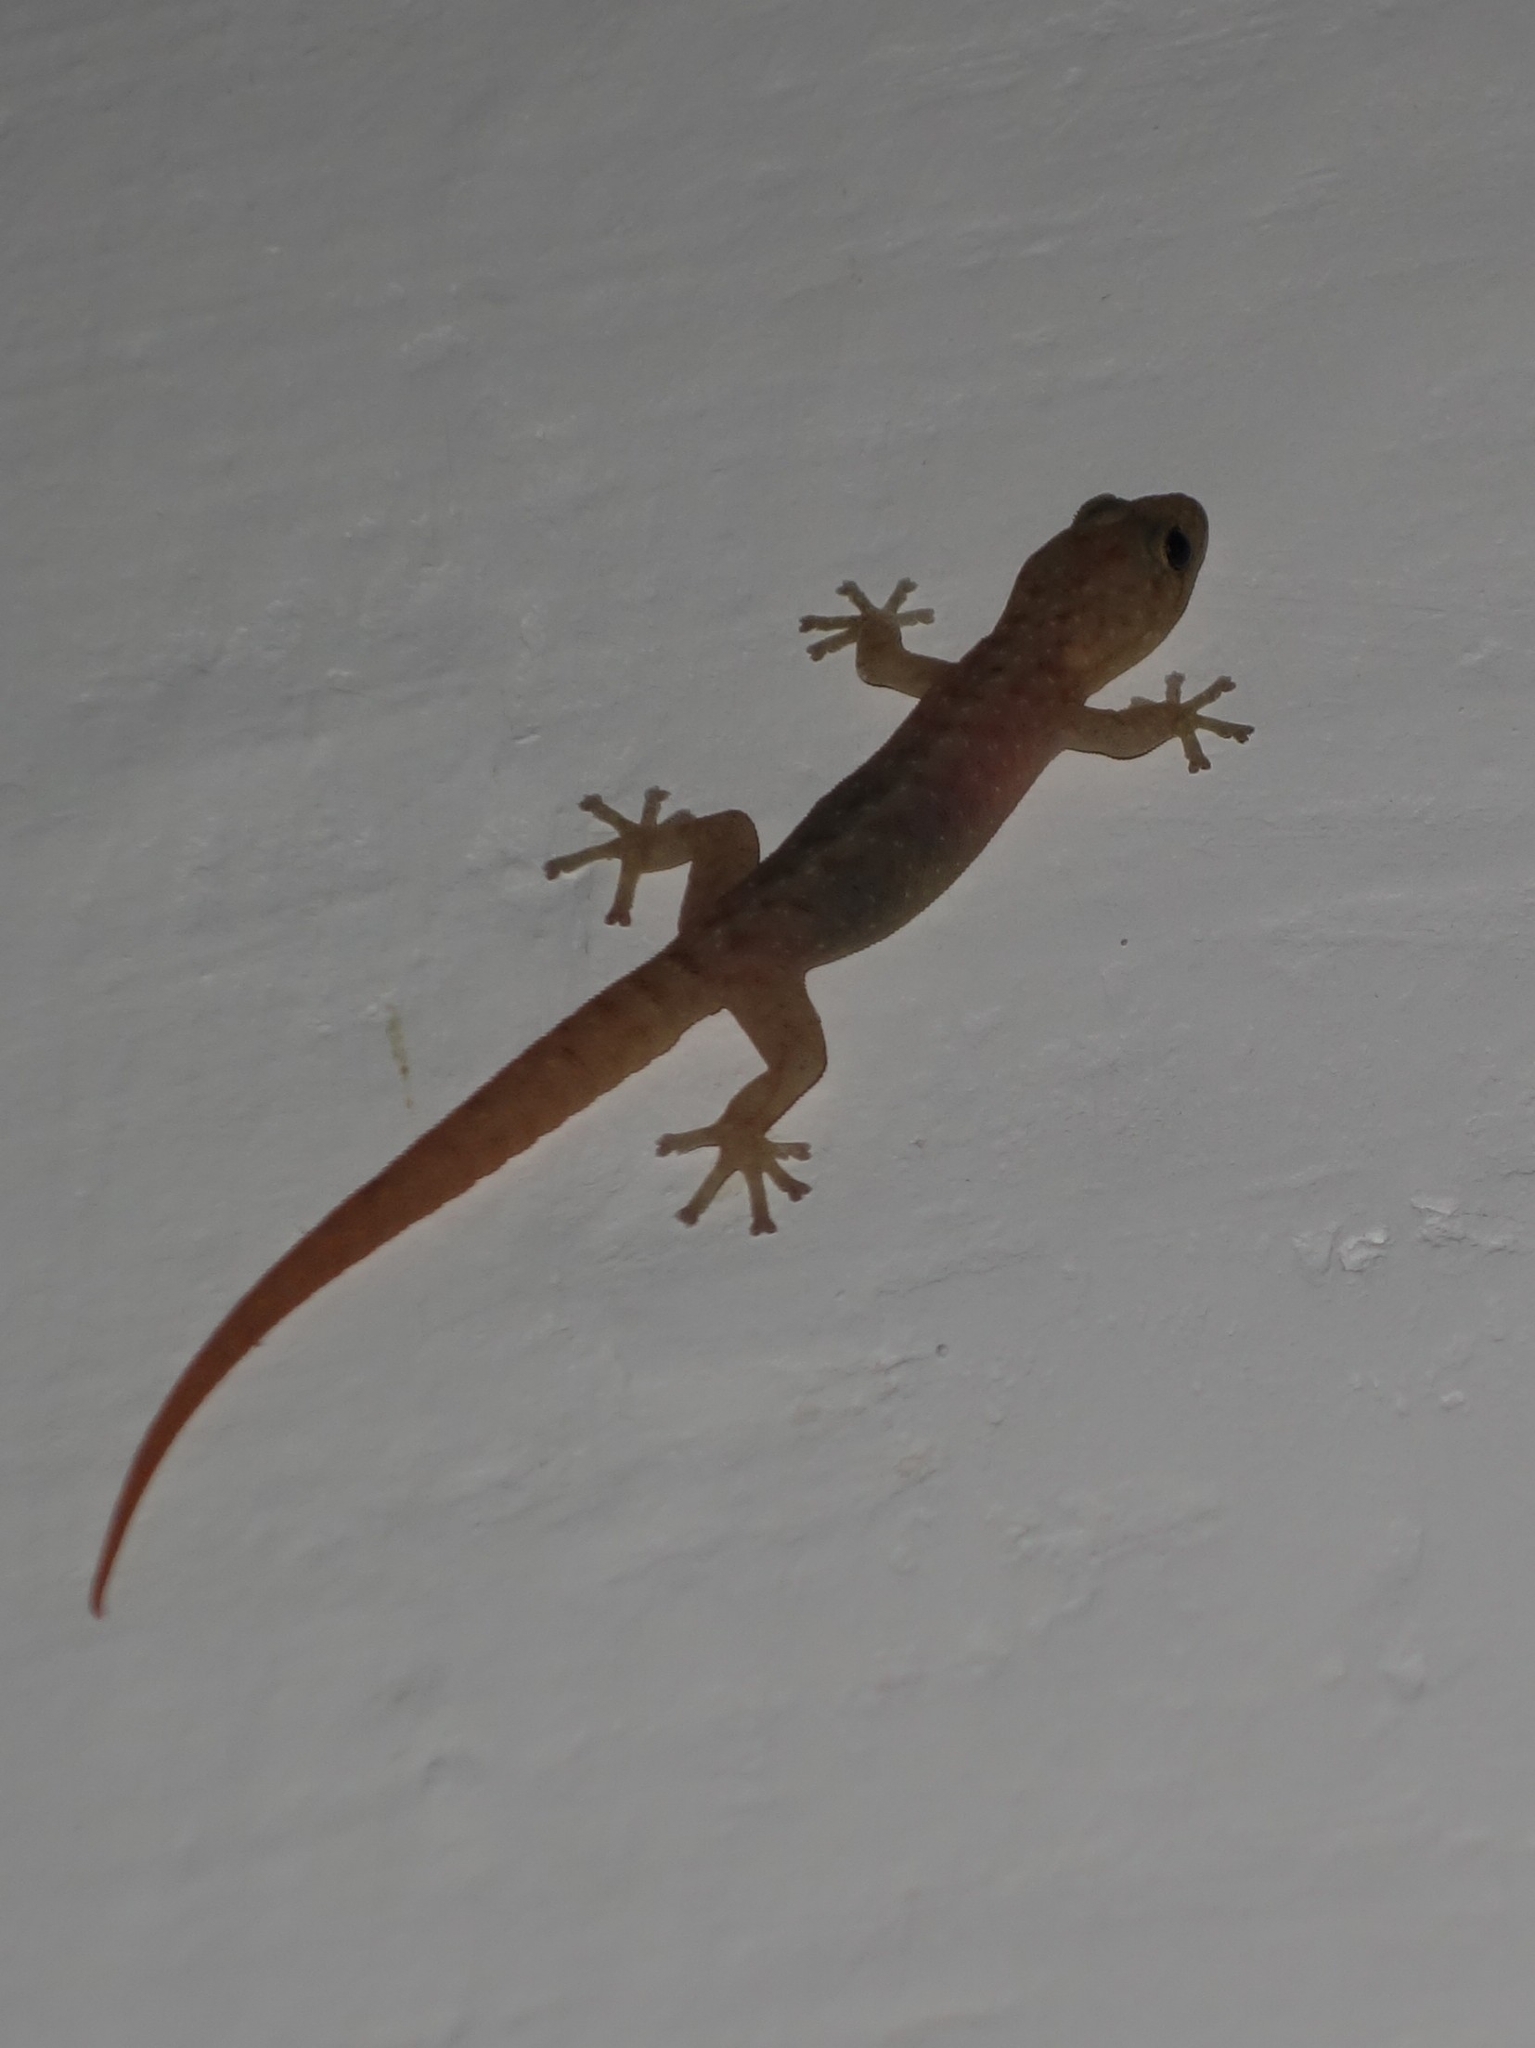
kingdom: Animalia
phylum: Chordata
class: Squamata
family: Gekkonidae
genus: Afroedura
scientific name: Afroedura karroica
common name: Inland rock gecko
